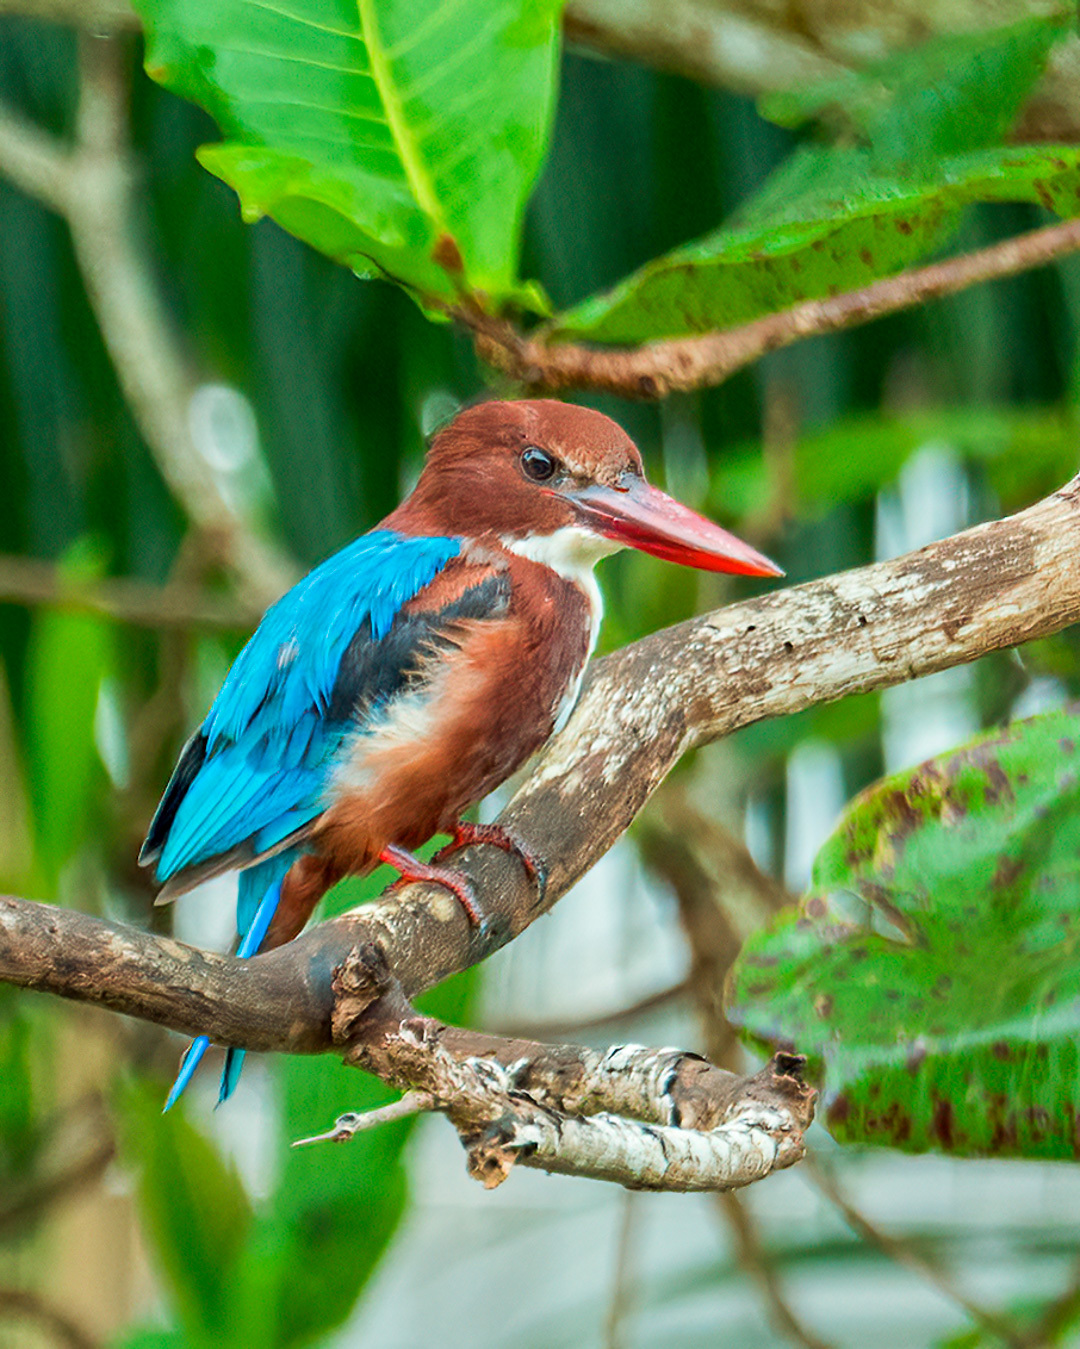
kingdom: Animalia
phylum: Chordata
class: Aves
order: Coraciiformes
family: Alcedinidae
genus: Halcyon
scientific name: Halcyon smyrnensis
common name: White-throated kingfisher
